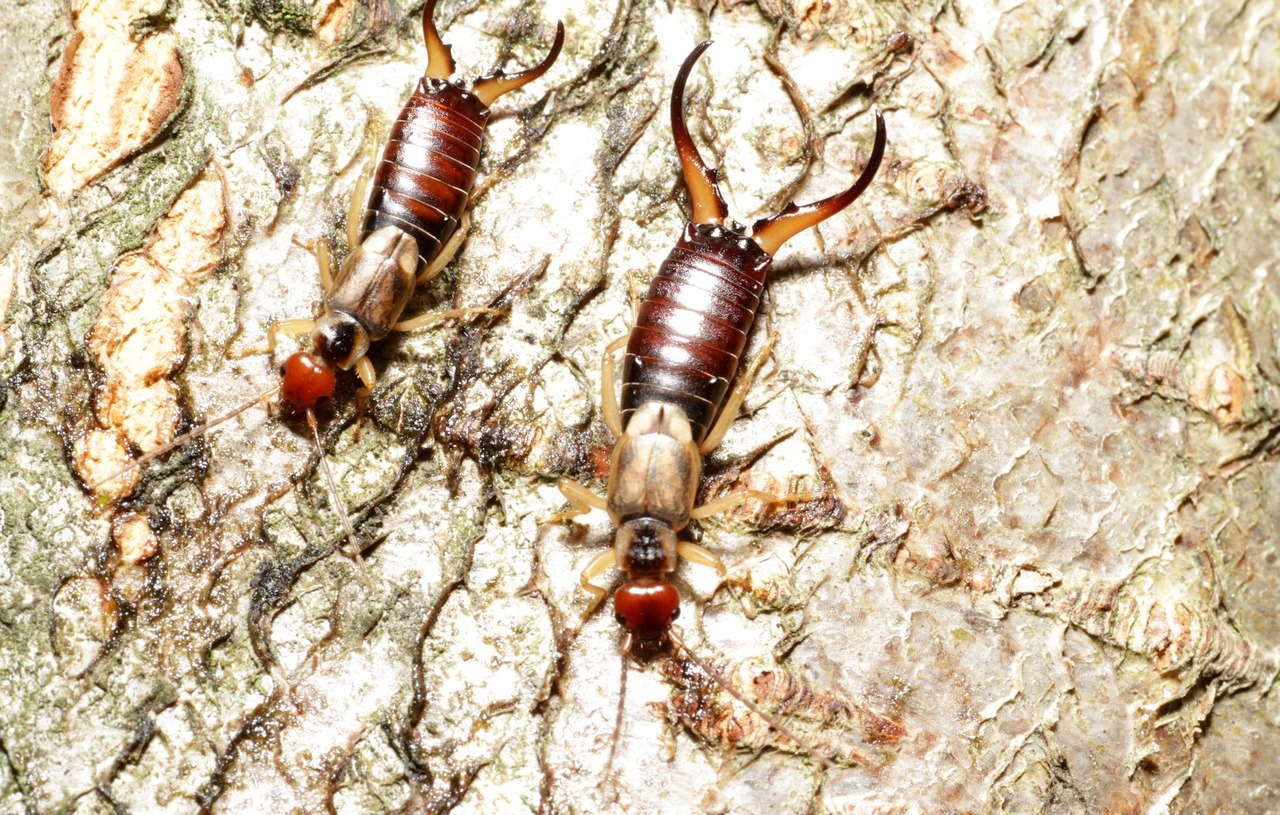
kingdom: Animalia
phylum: Arthropoda
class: Insecta
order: Dermaptera
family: Forficulidae
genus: Forficula
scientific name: Forficula
